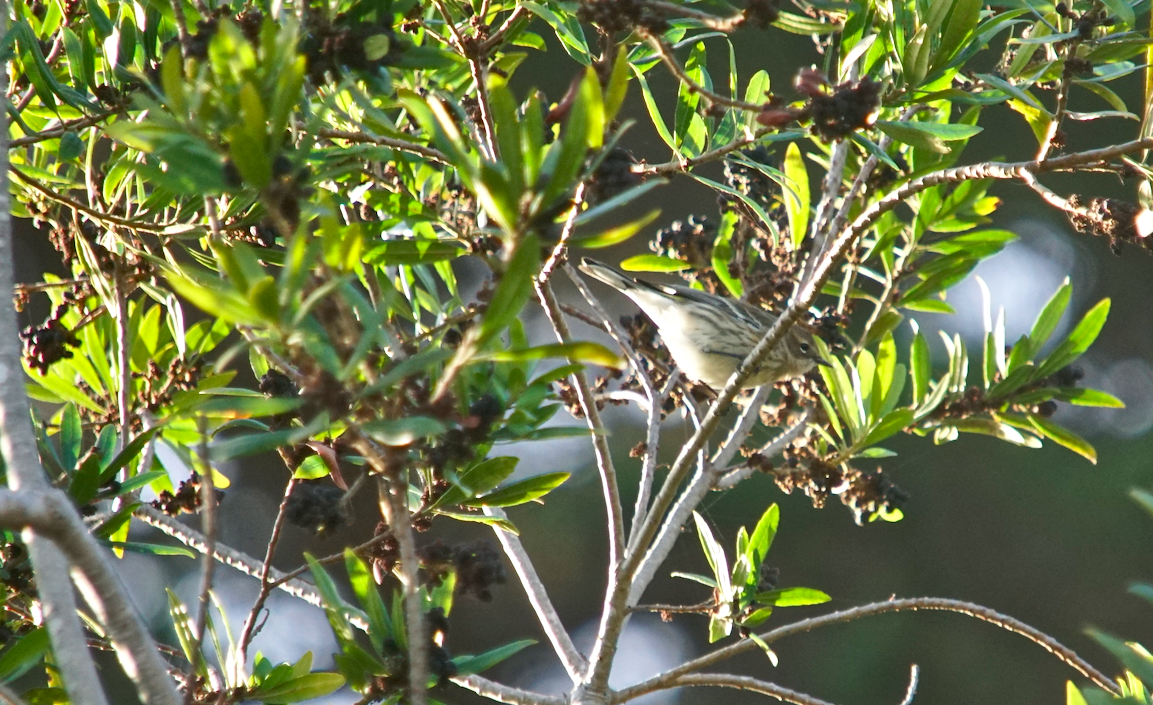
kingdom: Animalia
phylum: Chordata
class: Aves
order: Passeriformes
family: Parulidae
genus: Setophaga
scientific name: Setophaga coronata
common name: Myrtle warbler
